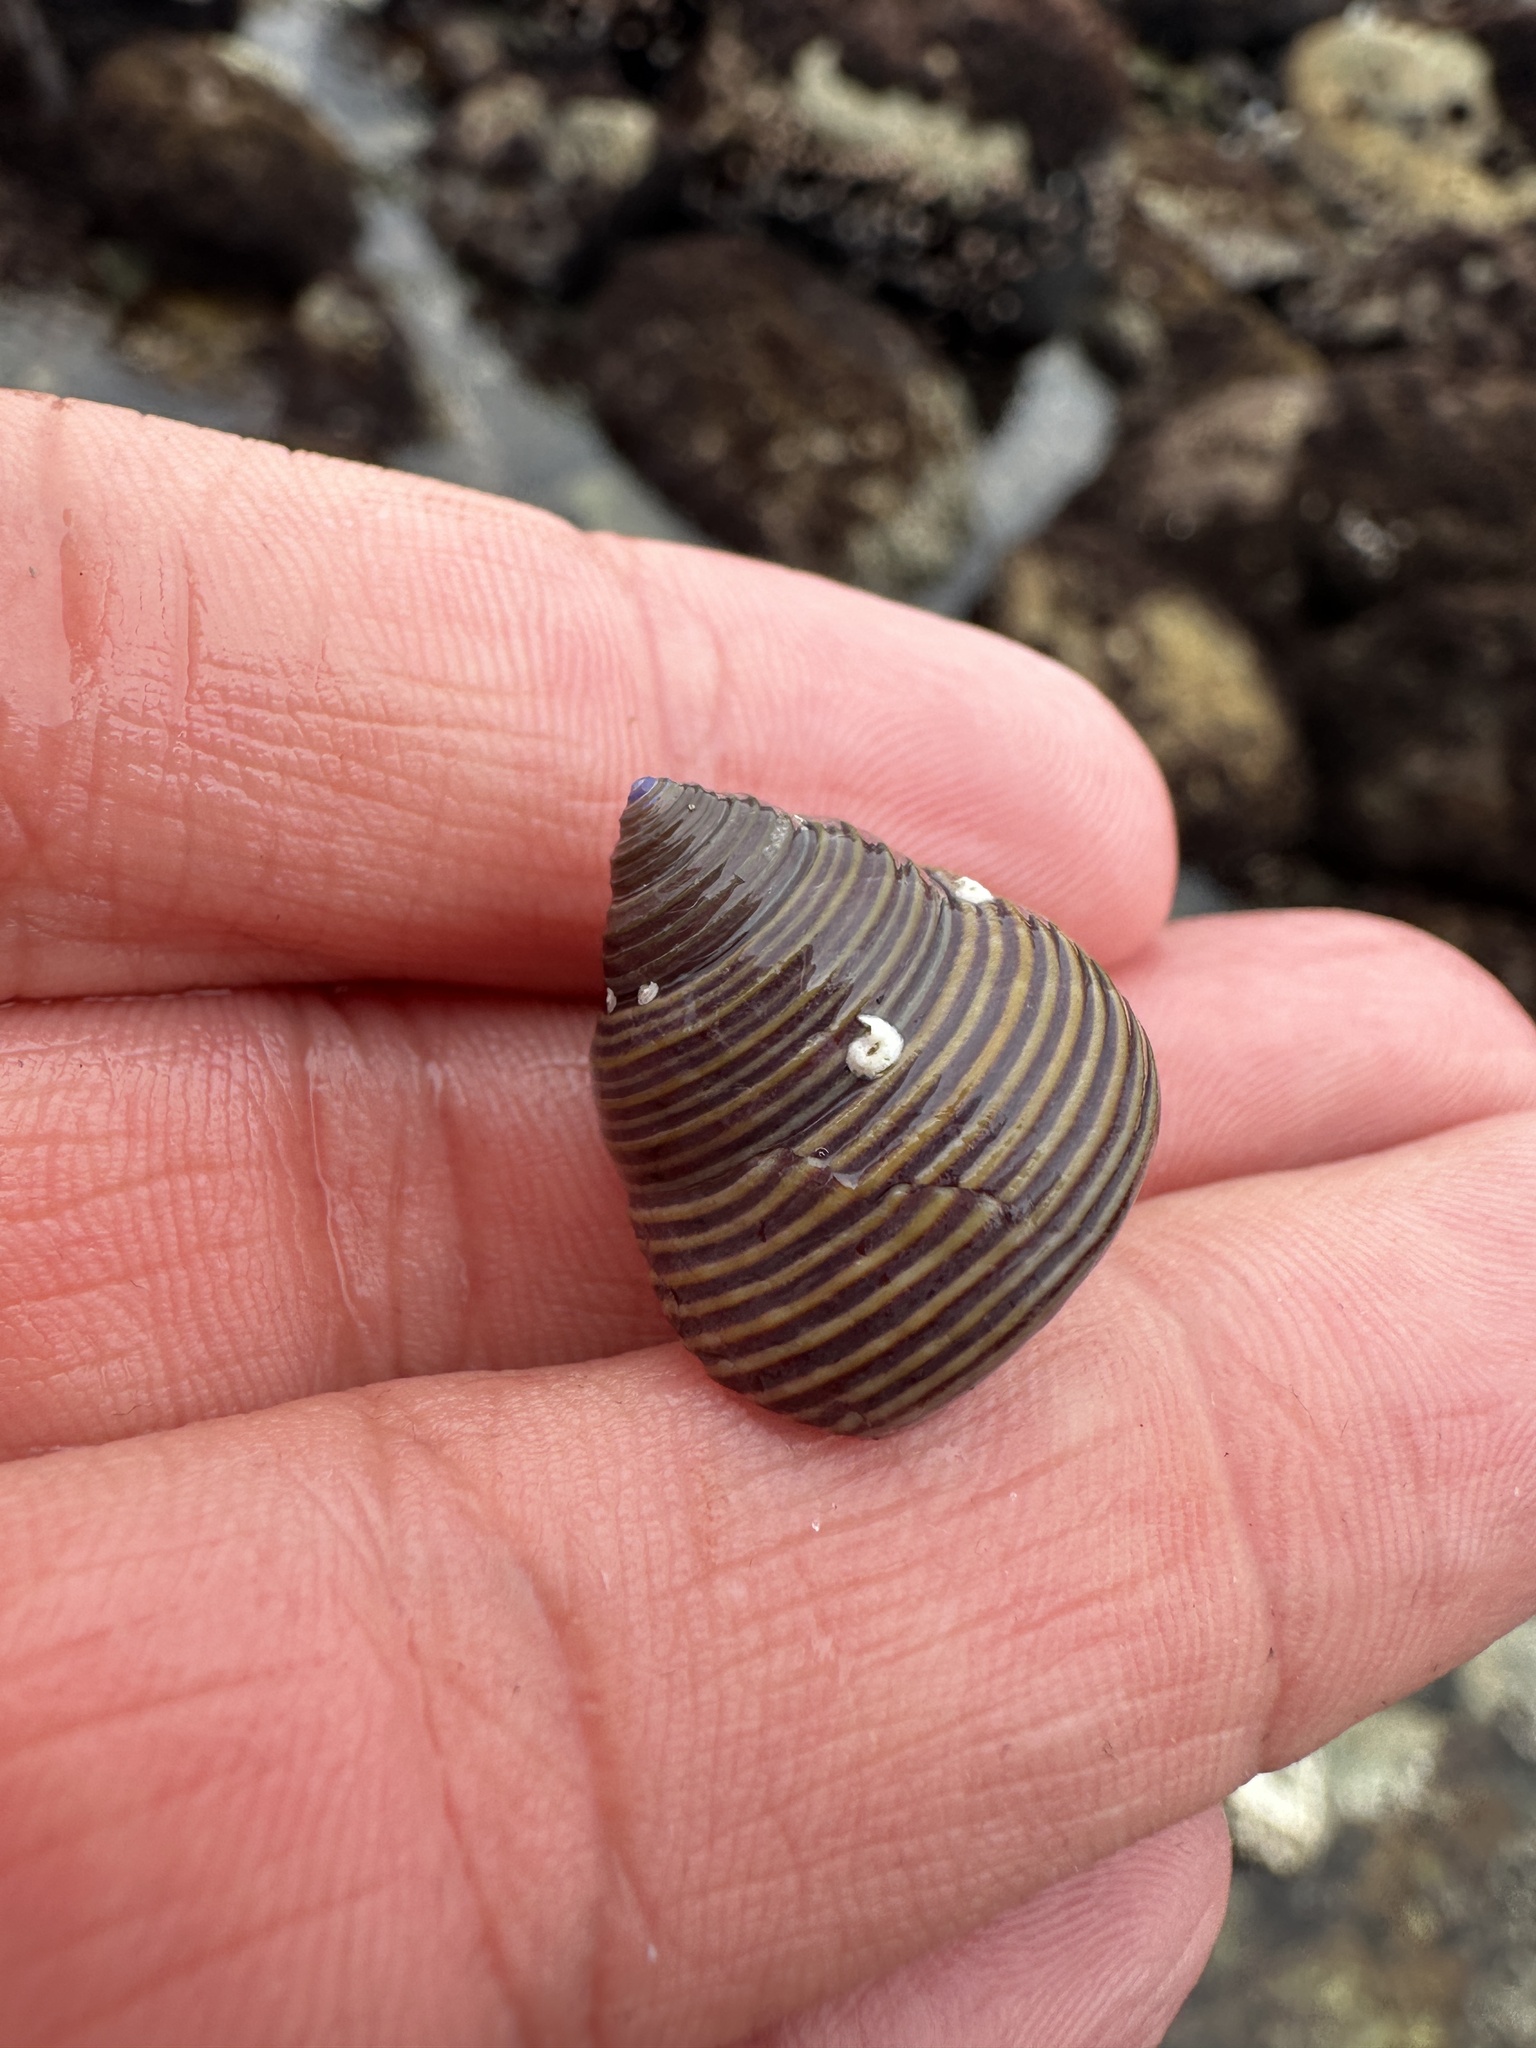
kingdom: Animalia
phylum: Mollusca
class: Gastropoda
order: Trochida
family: Calliostomatidae
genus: Calliostoma
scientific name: Calliostoma ligatum
